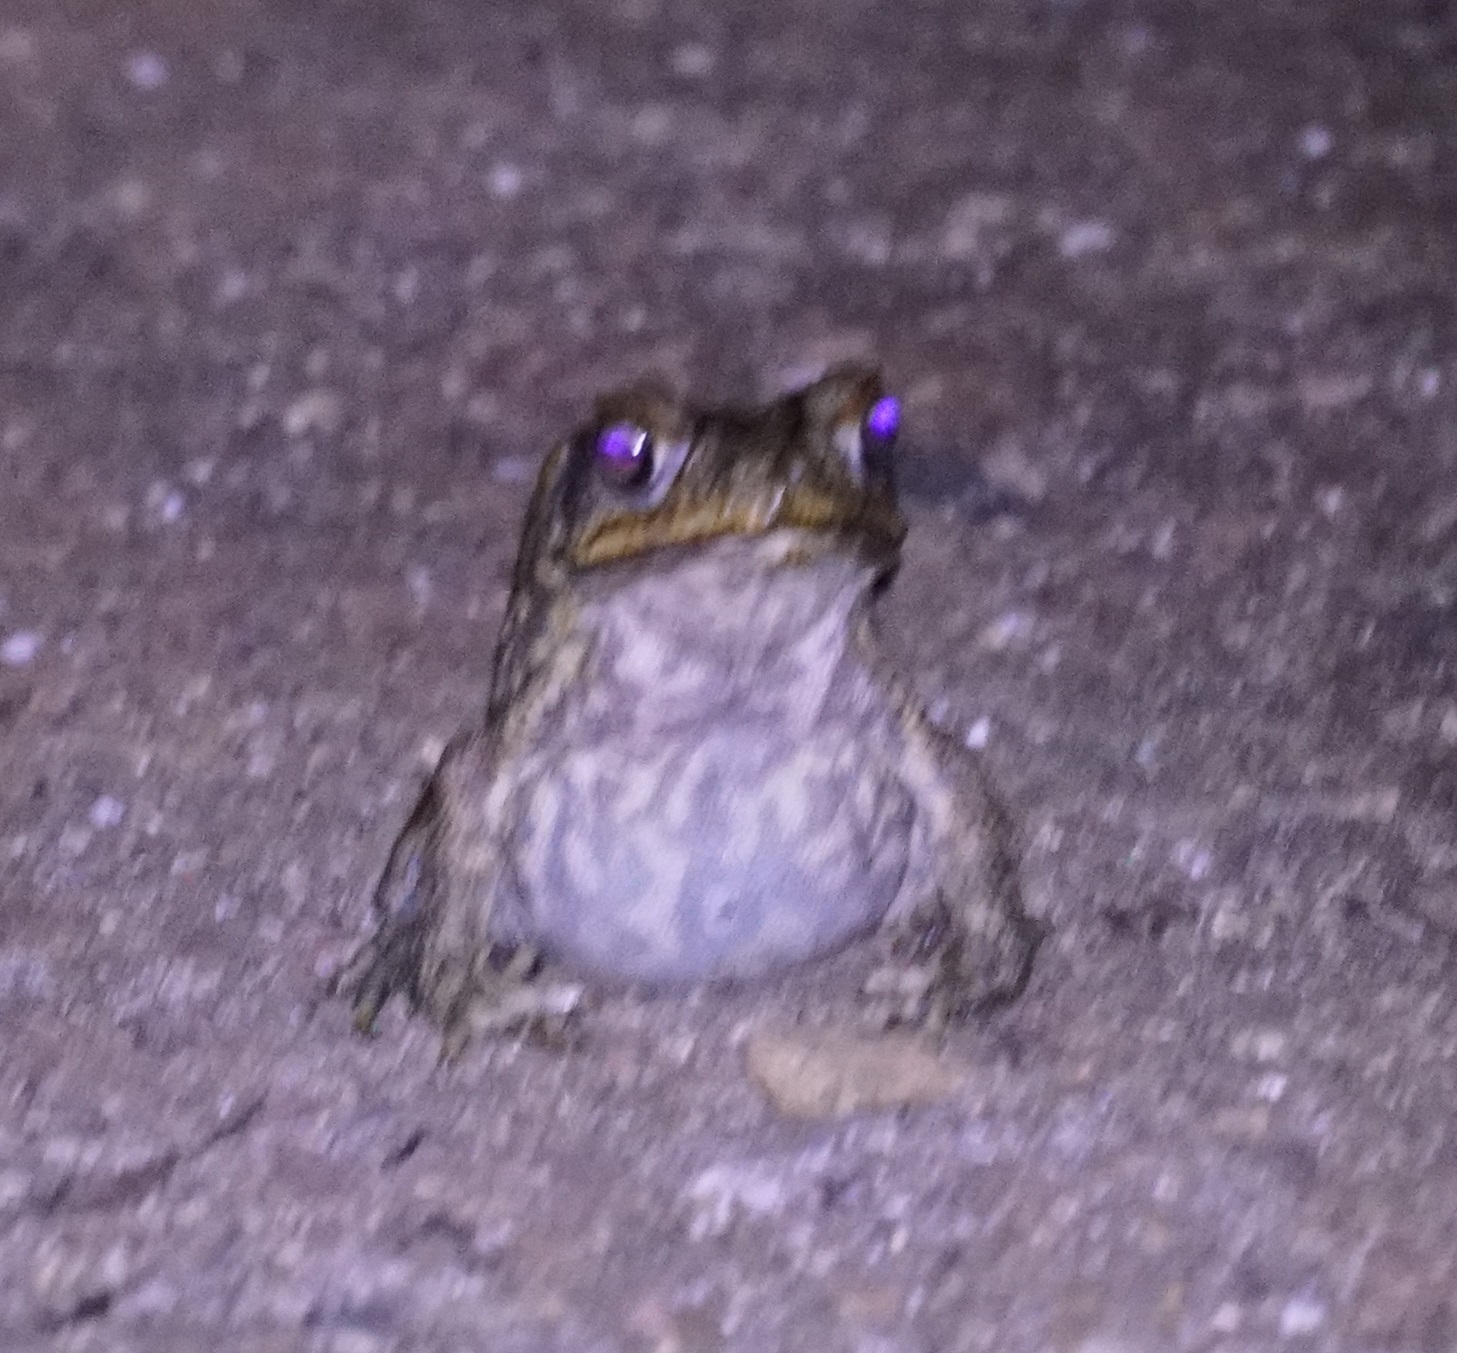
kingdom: Animalia
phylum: Chordata
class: Amphibia
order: Anura
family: Bufonidae
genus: Rhinella
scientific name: Rhinella marina
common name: Cane toad
